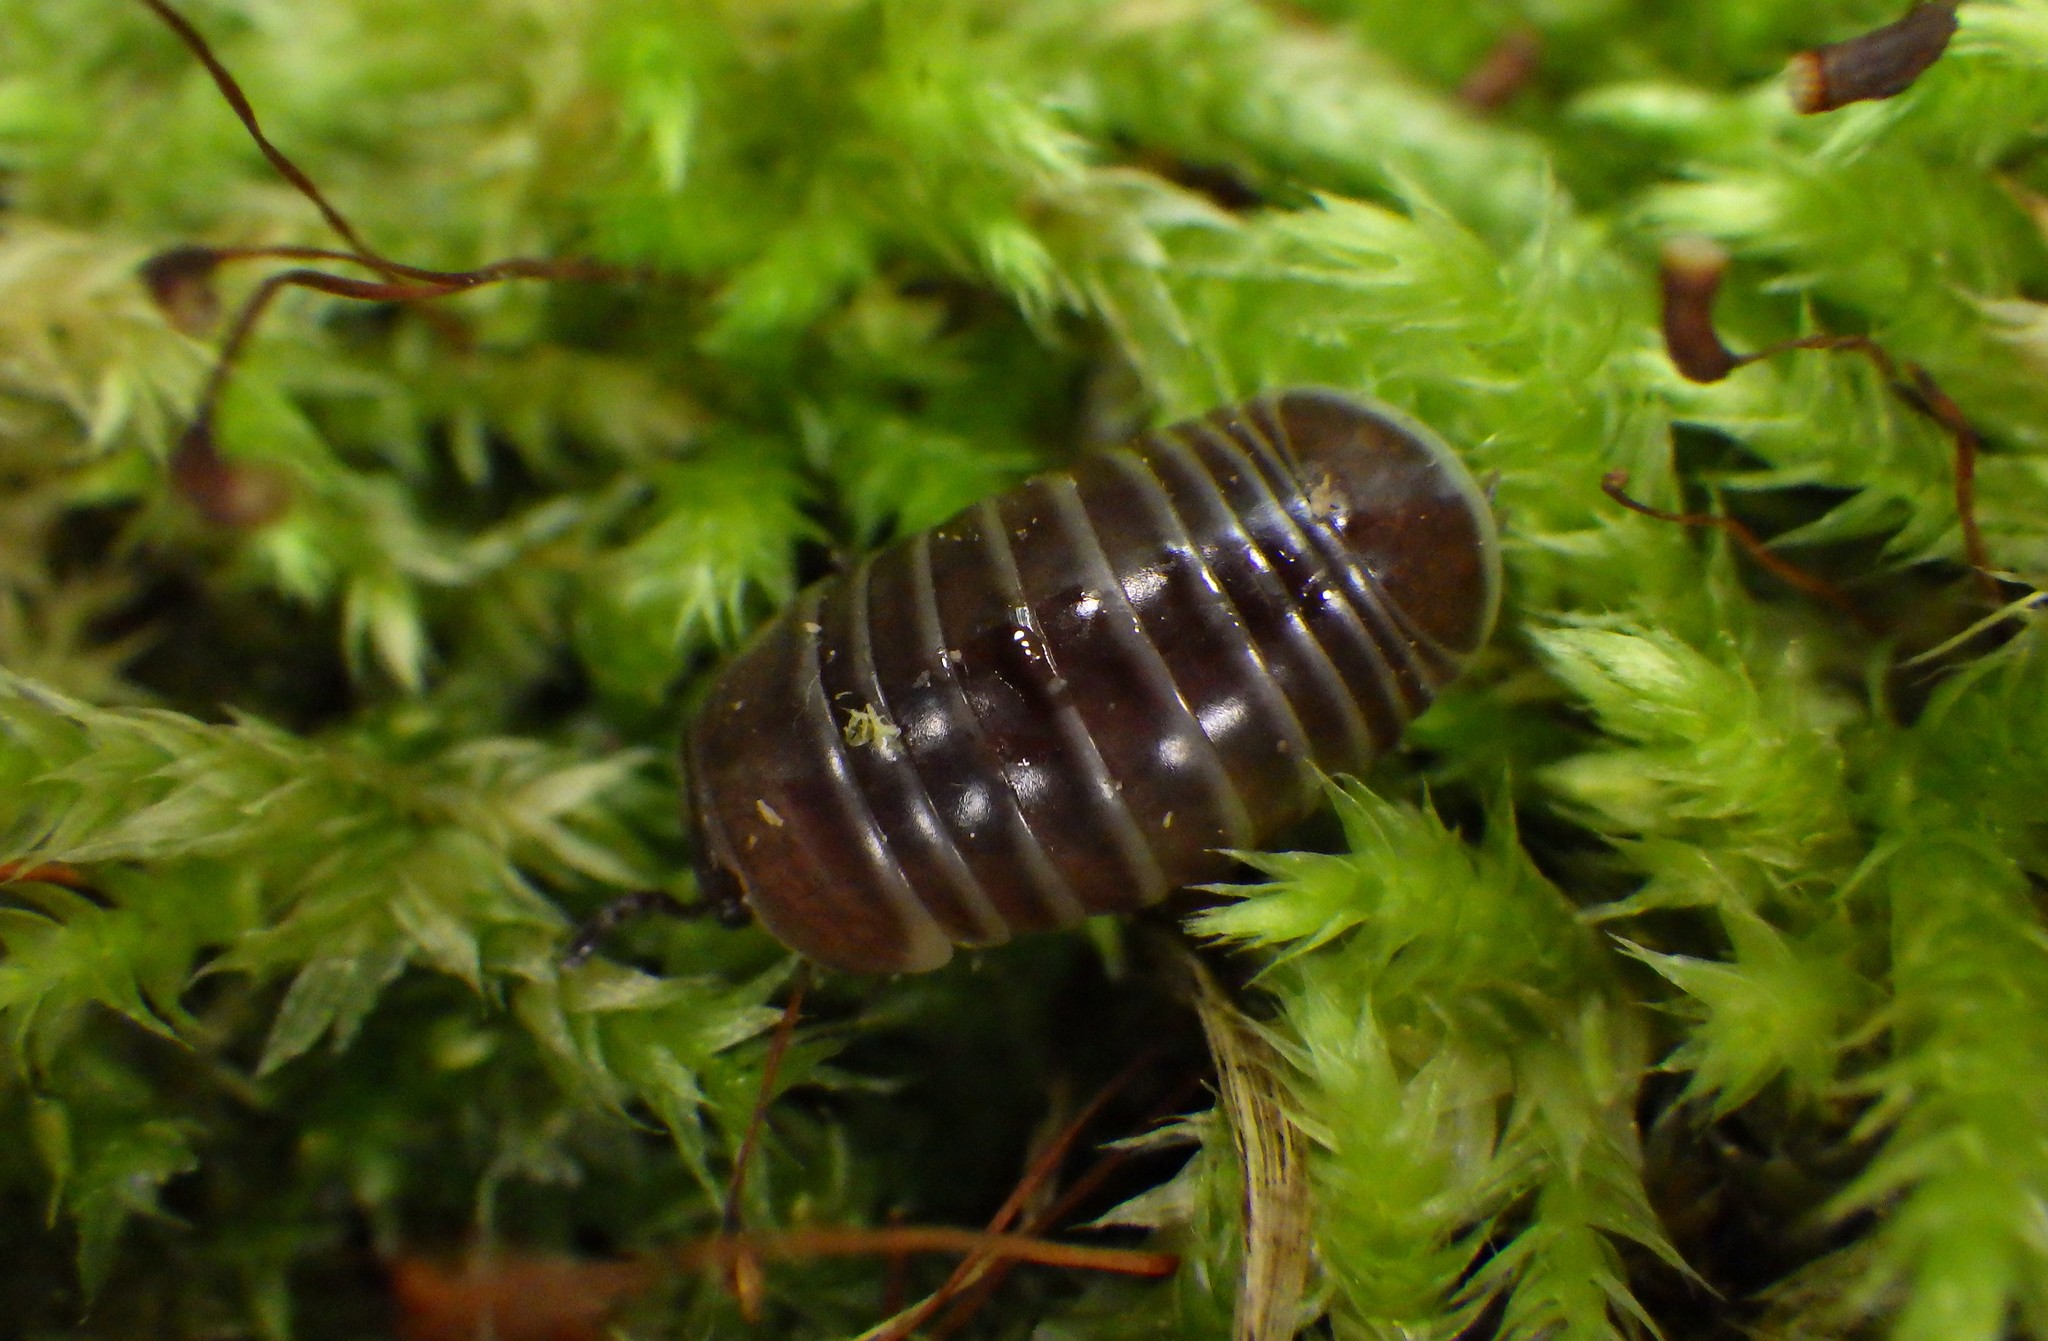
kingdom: Animalia
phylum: Arthropoda
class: Diplopoda
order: Glomerida
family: Glomeridae
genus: Glomeris
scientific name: Glomeris marginata
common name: Bordered pill millipede
